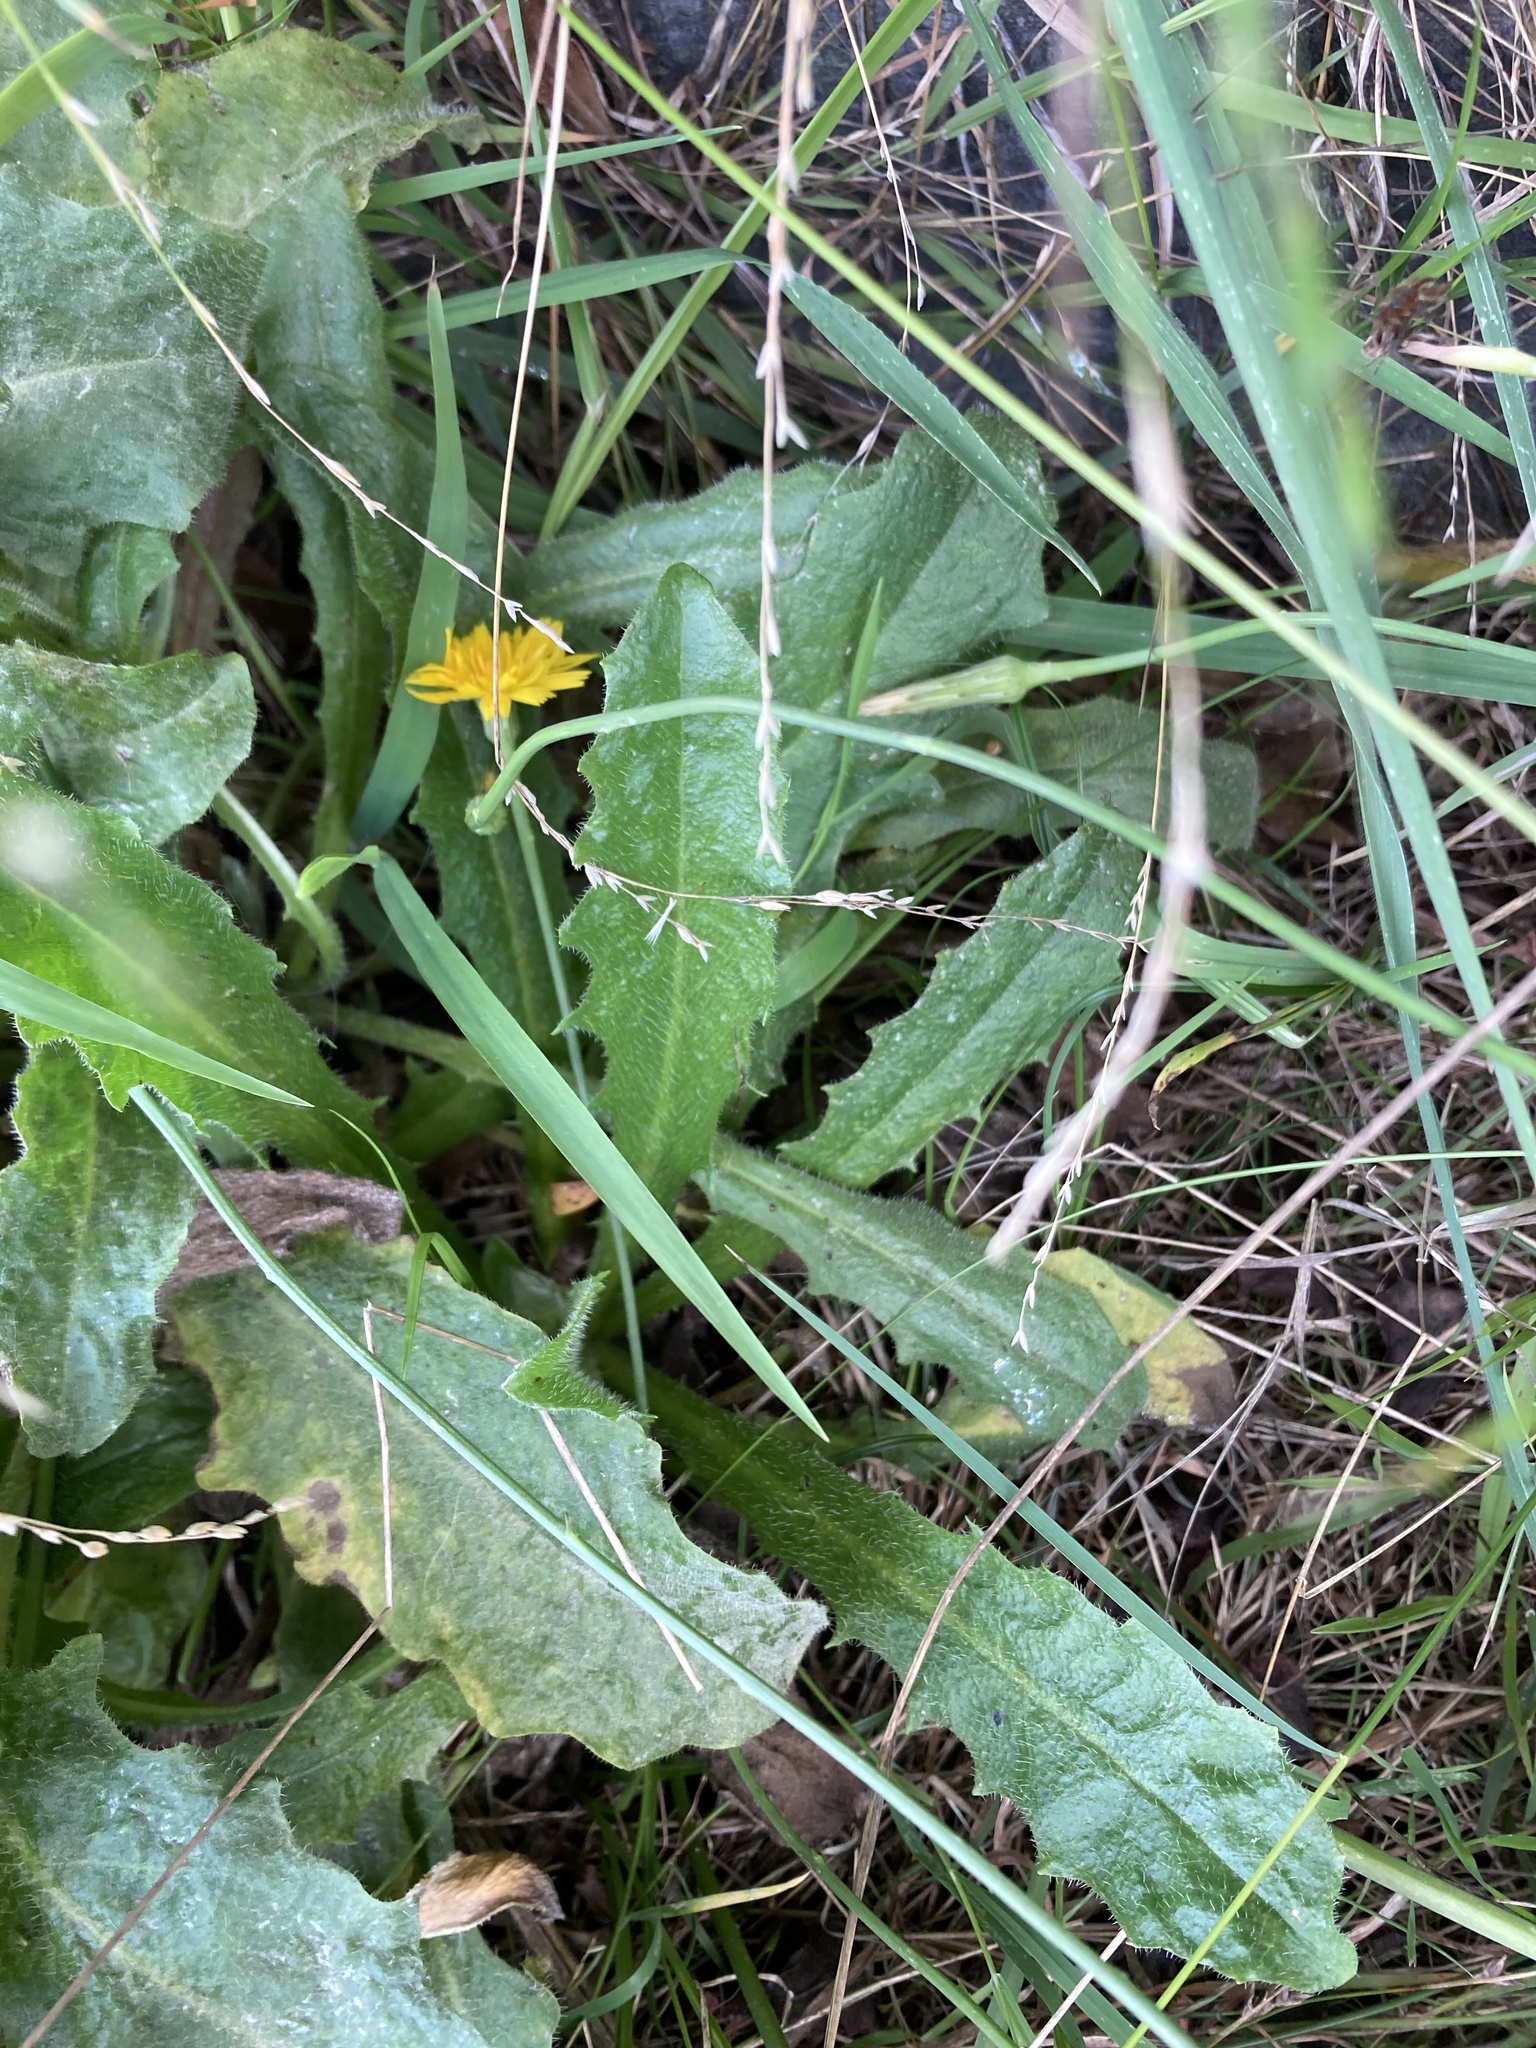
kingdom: Plantae
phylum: Tracheophyta
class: Magnoliopsida
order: Asterales
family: Asteraceae
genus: Hypochaeris
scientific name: Hypochaeris radicata
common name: Flatweed
